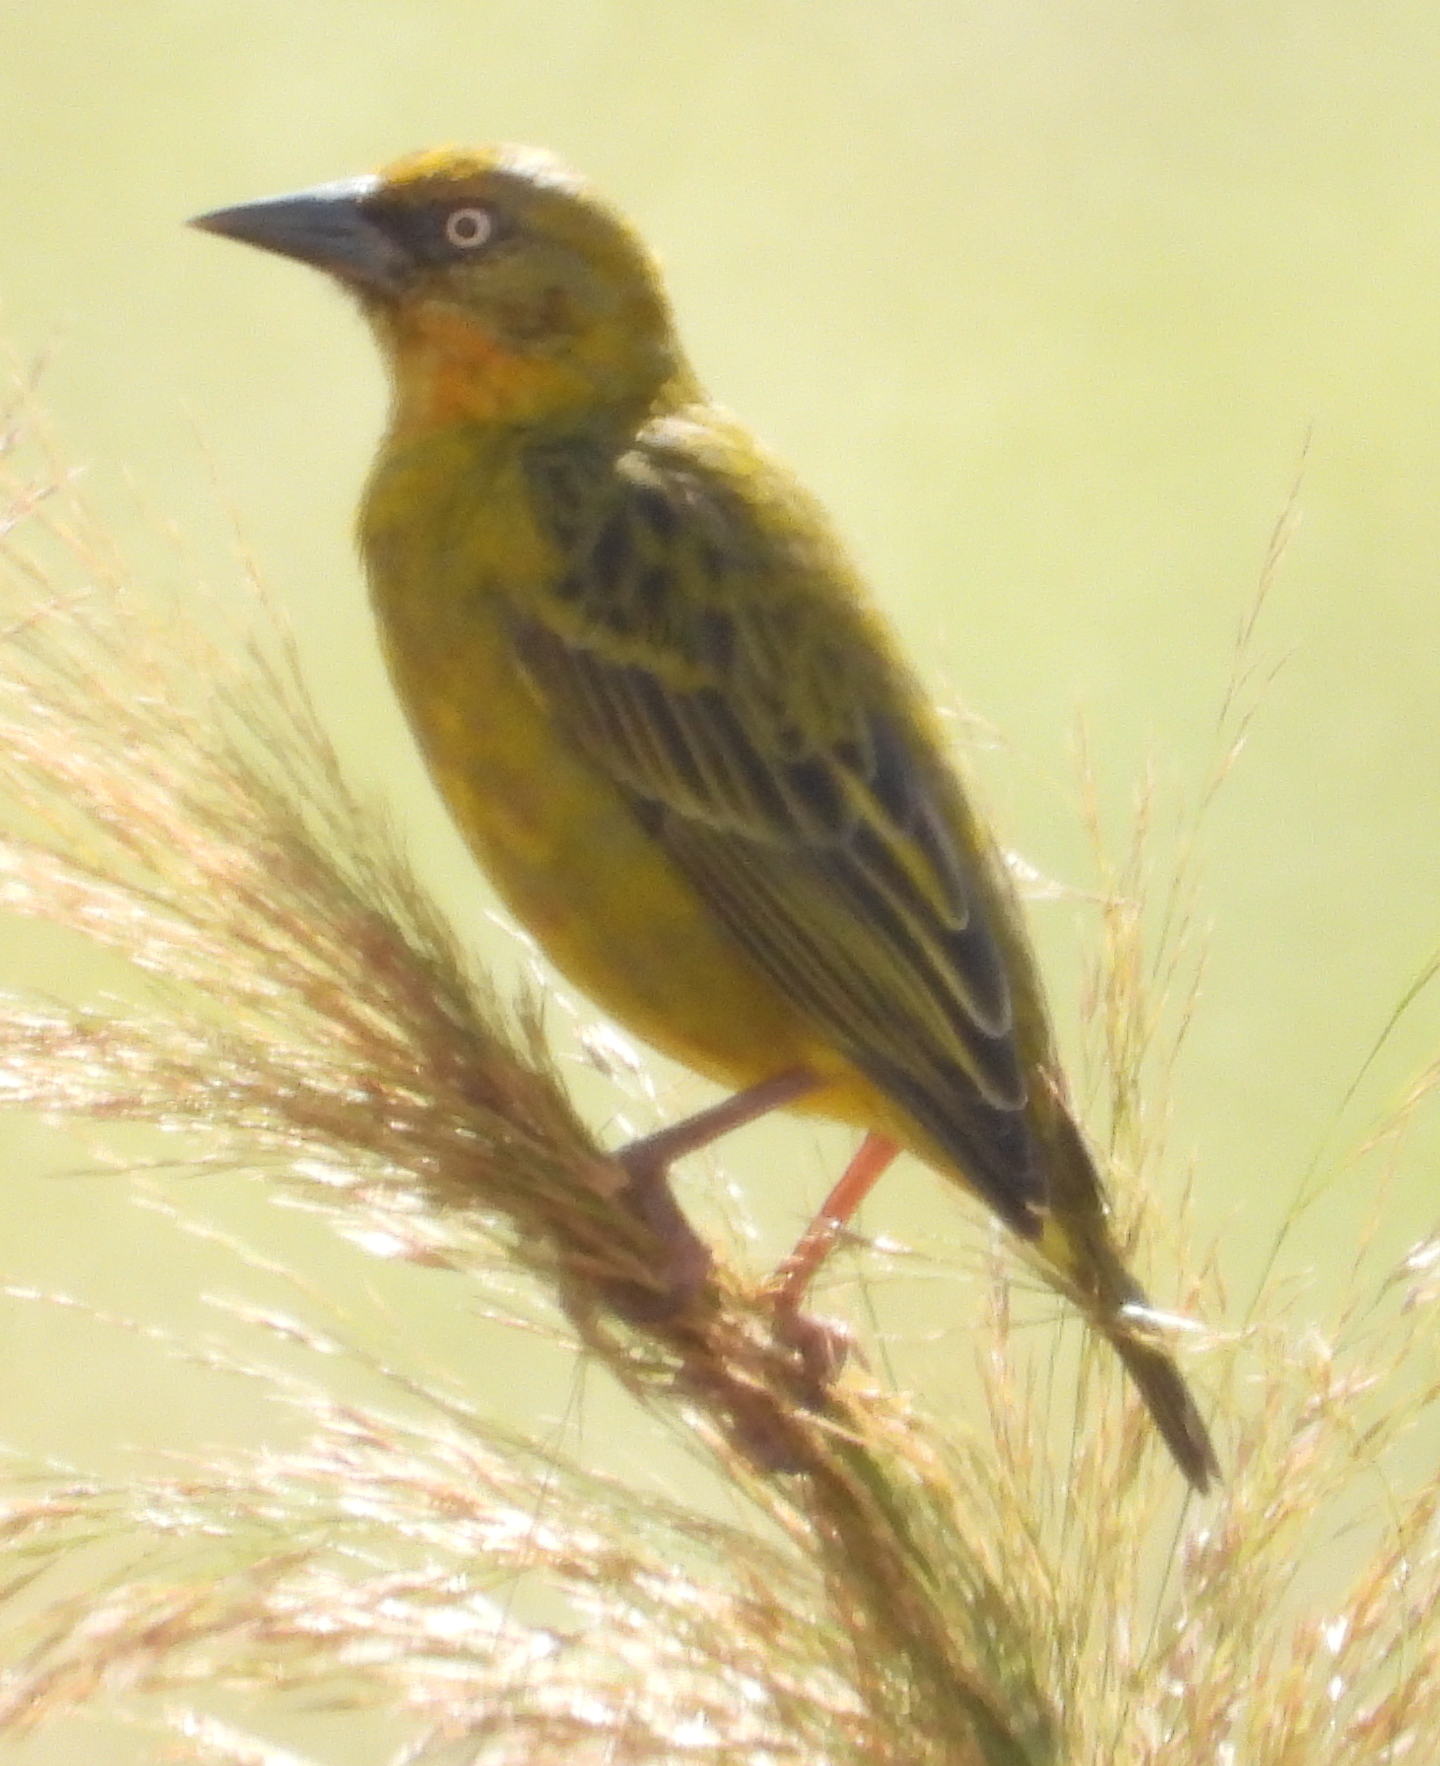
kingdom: Animalia
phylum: Chordata
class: Aves
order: Passeriformes
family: Ploceidae
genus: Ploceus
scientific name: Ploceus capensis
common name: Cape weaver
